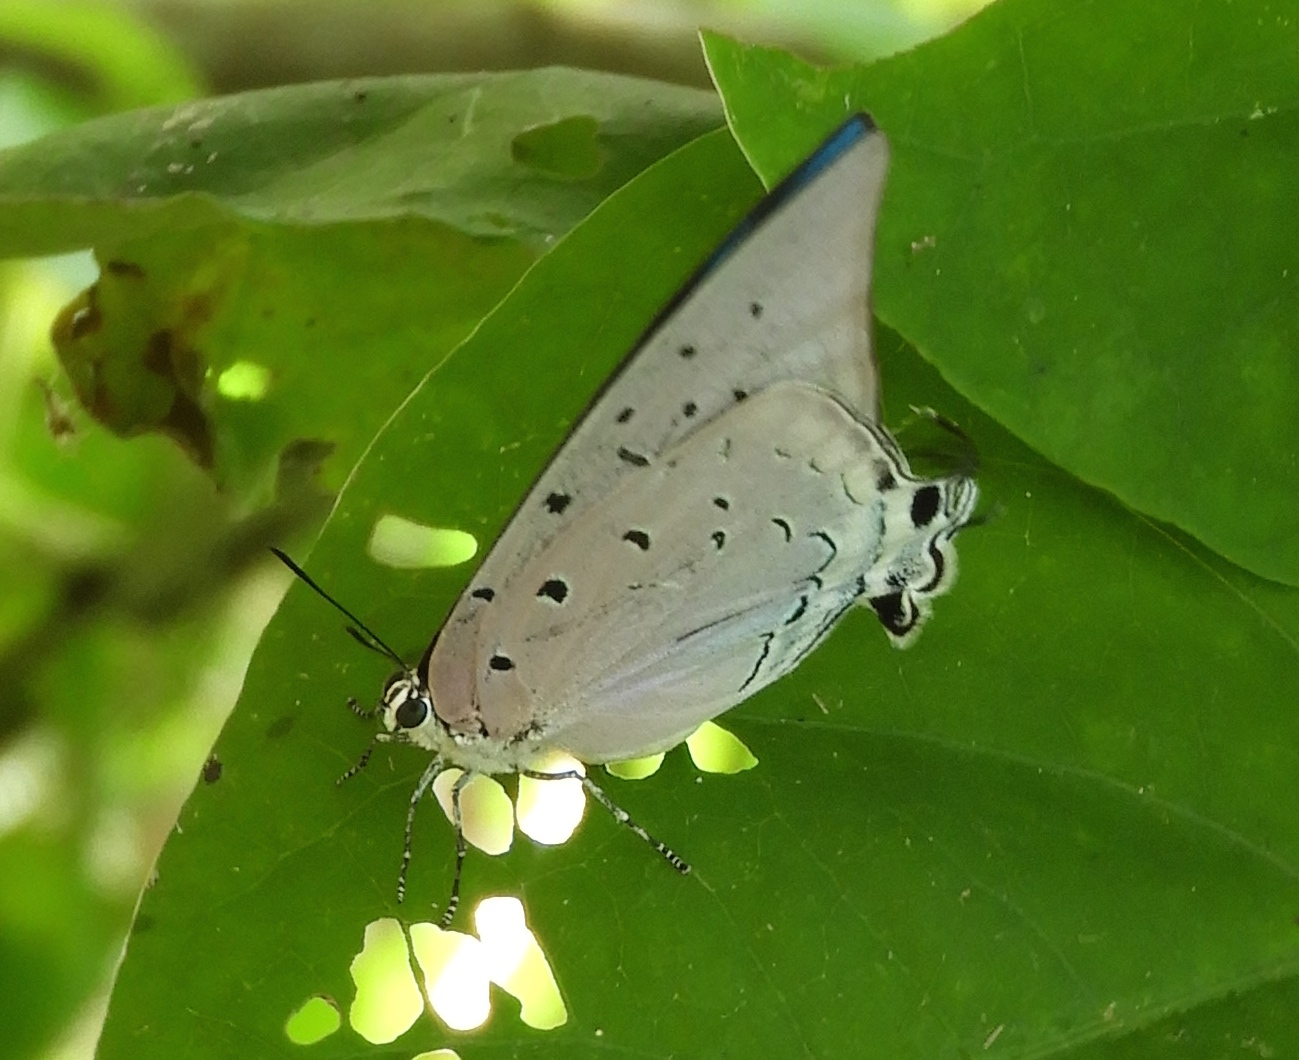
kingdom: Animalia
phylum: Arthropoda
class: Insecta
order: Lepidoptera
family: Lycaenidae
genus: Pseudolycaena
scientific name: Pseudolycaena damo
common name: Sky-blue hairstreak
